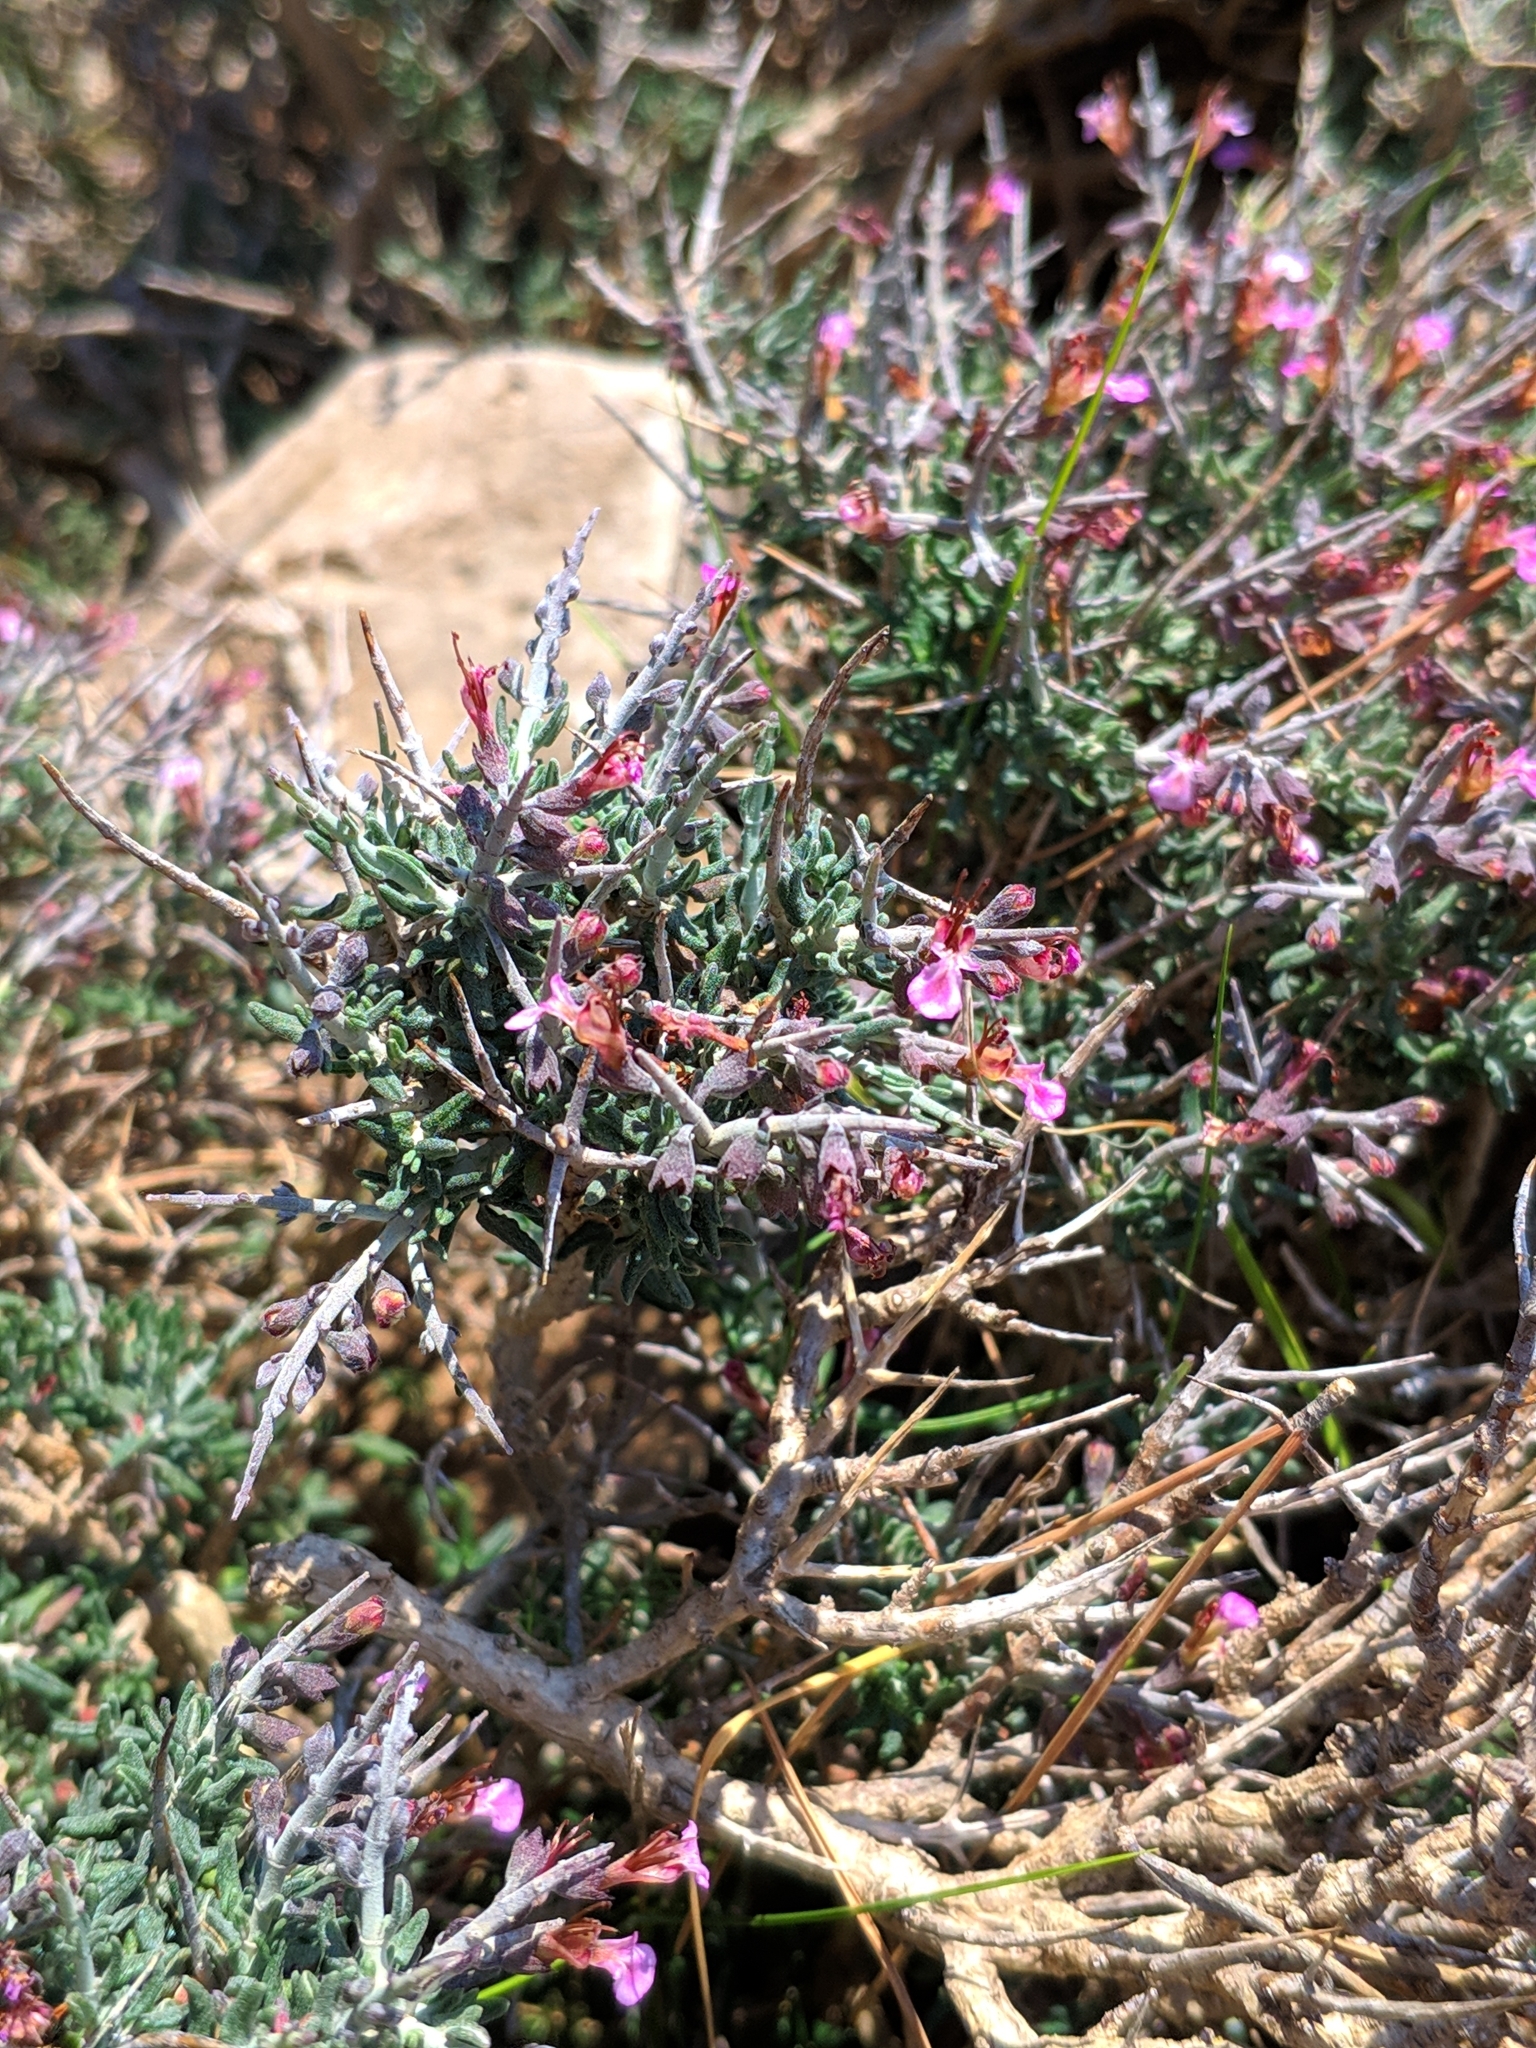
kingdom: Plantae
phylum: Tracheophyta
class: Magnoliopsida
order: Lamiales
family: Lamiaceae
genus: Teucrium
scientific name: Teucrium balearicum
